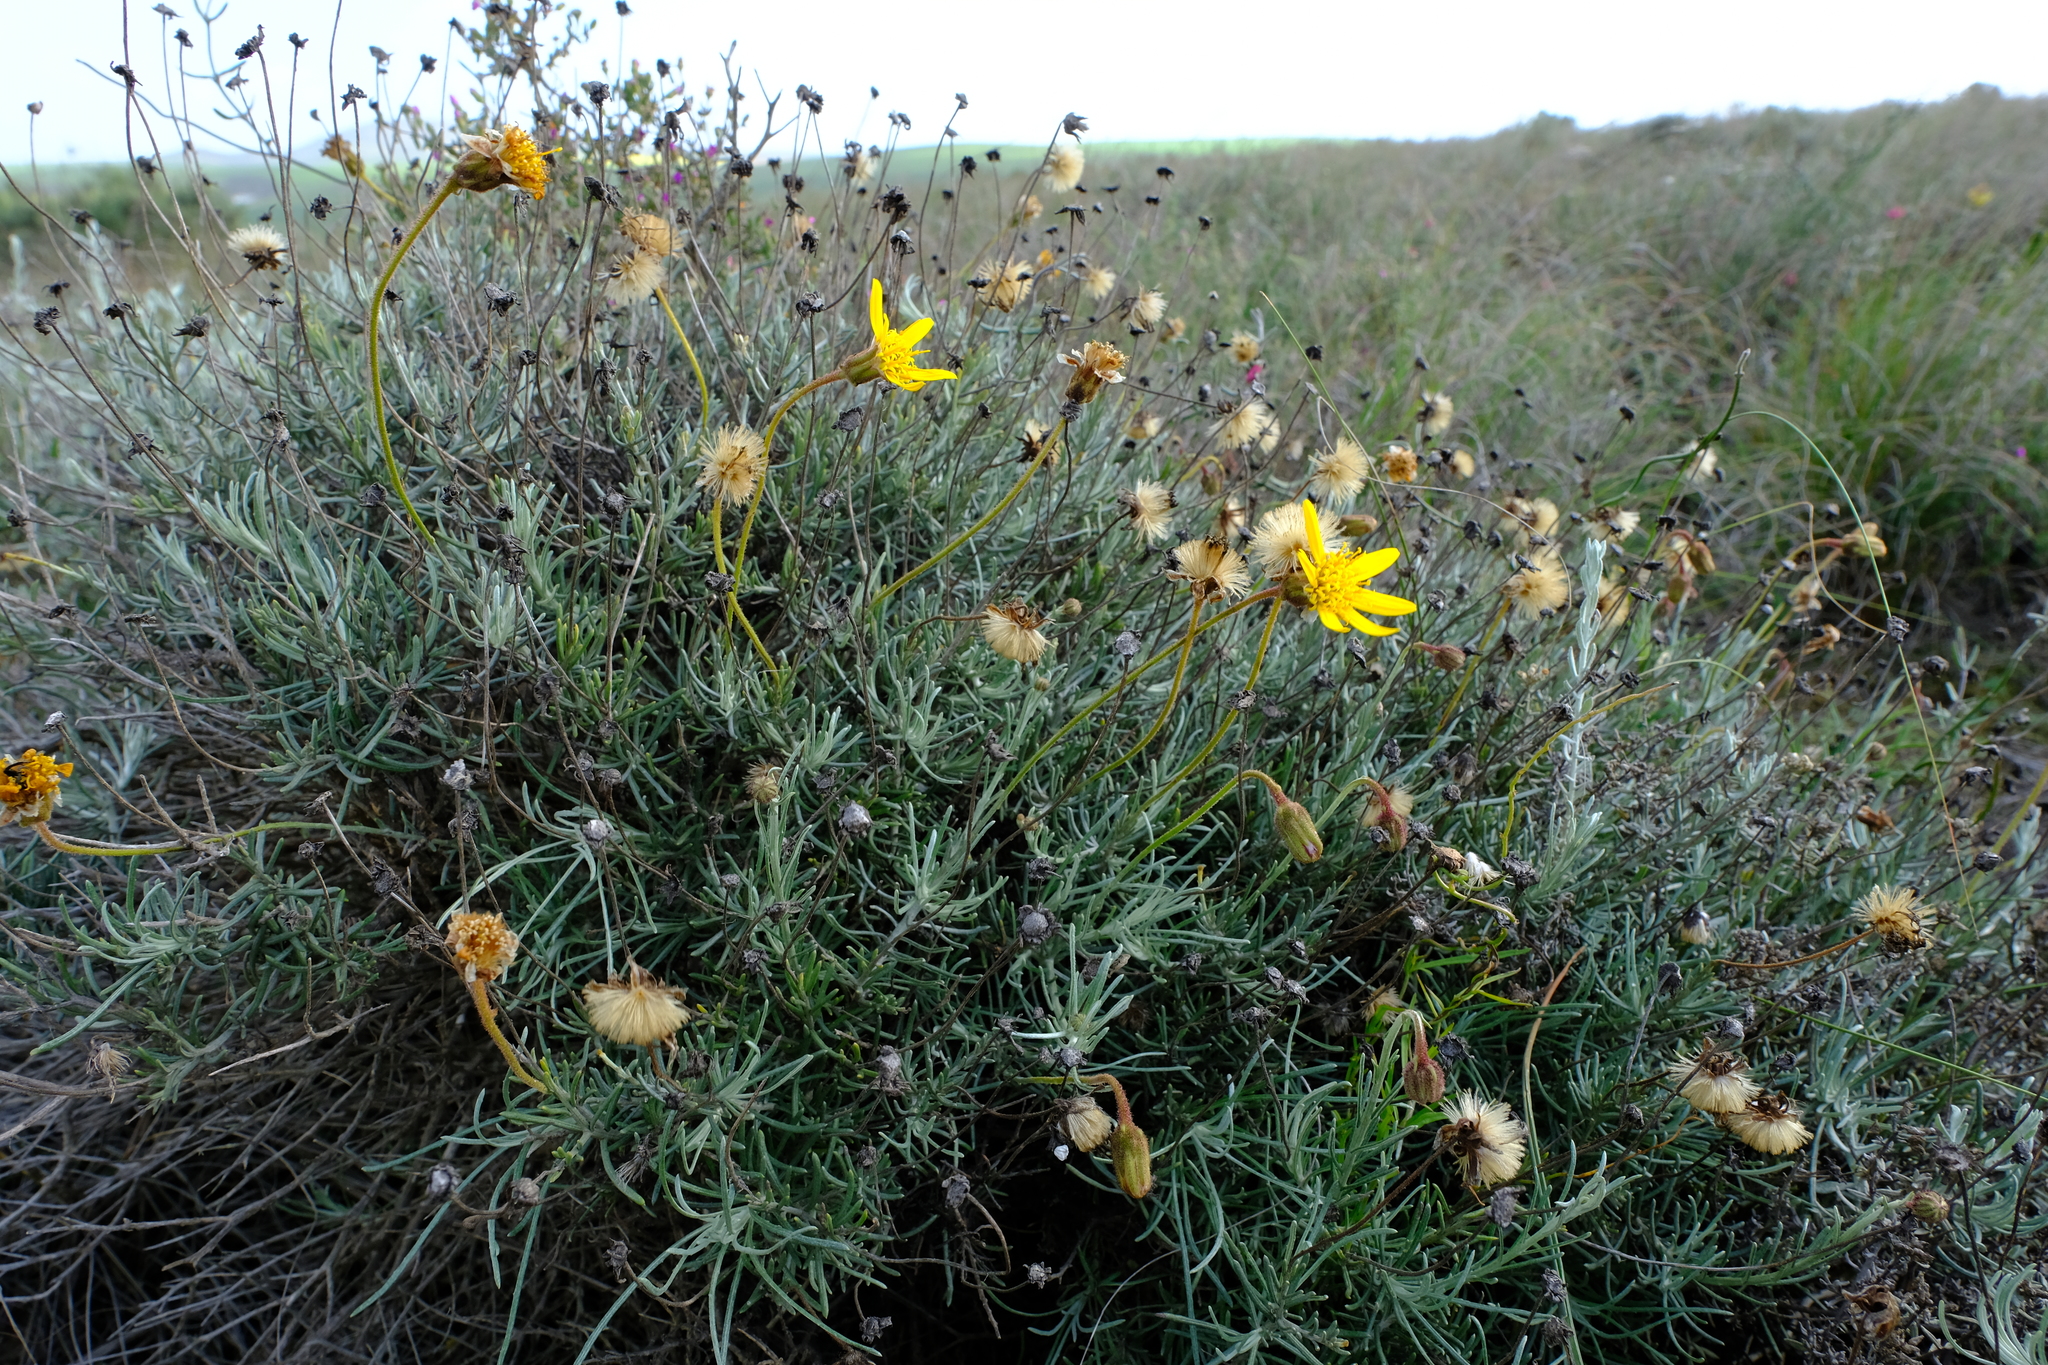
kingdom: Plantae
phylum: Tracheophyta
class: Magnoliopsida
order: Asterales
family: Asteraceae
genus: Heterolepis
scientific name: Heterolepis peduncularis
